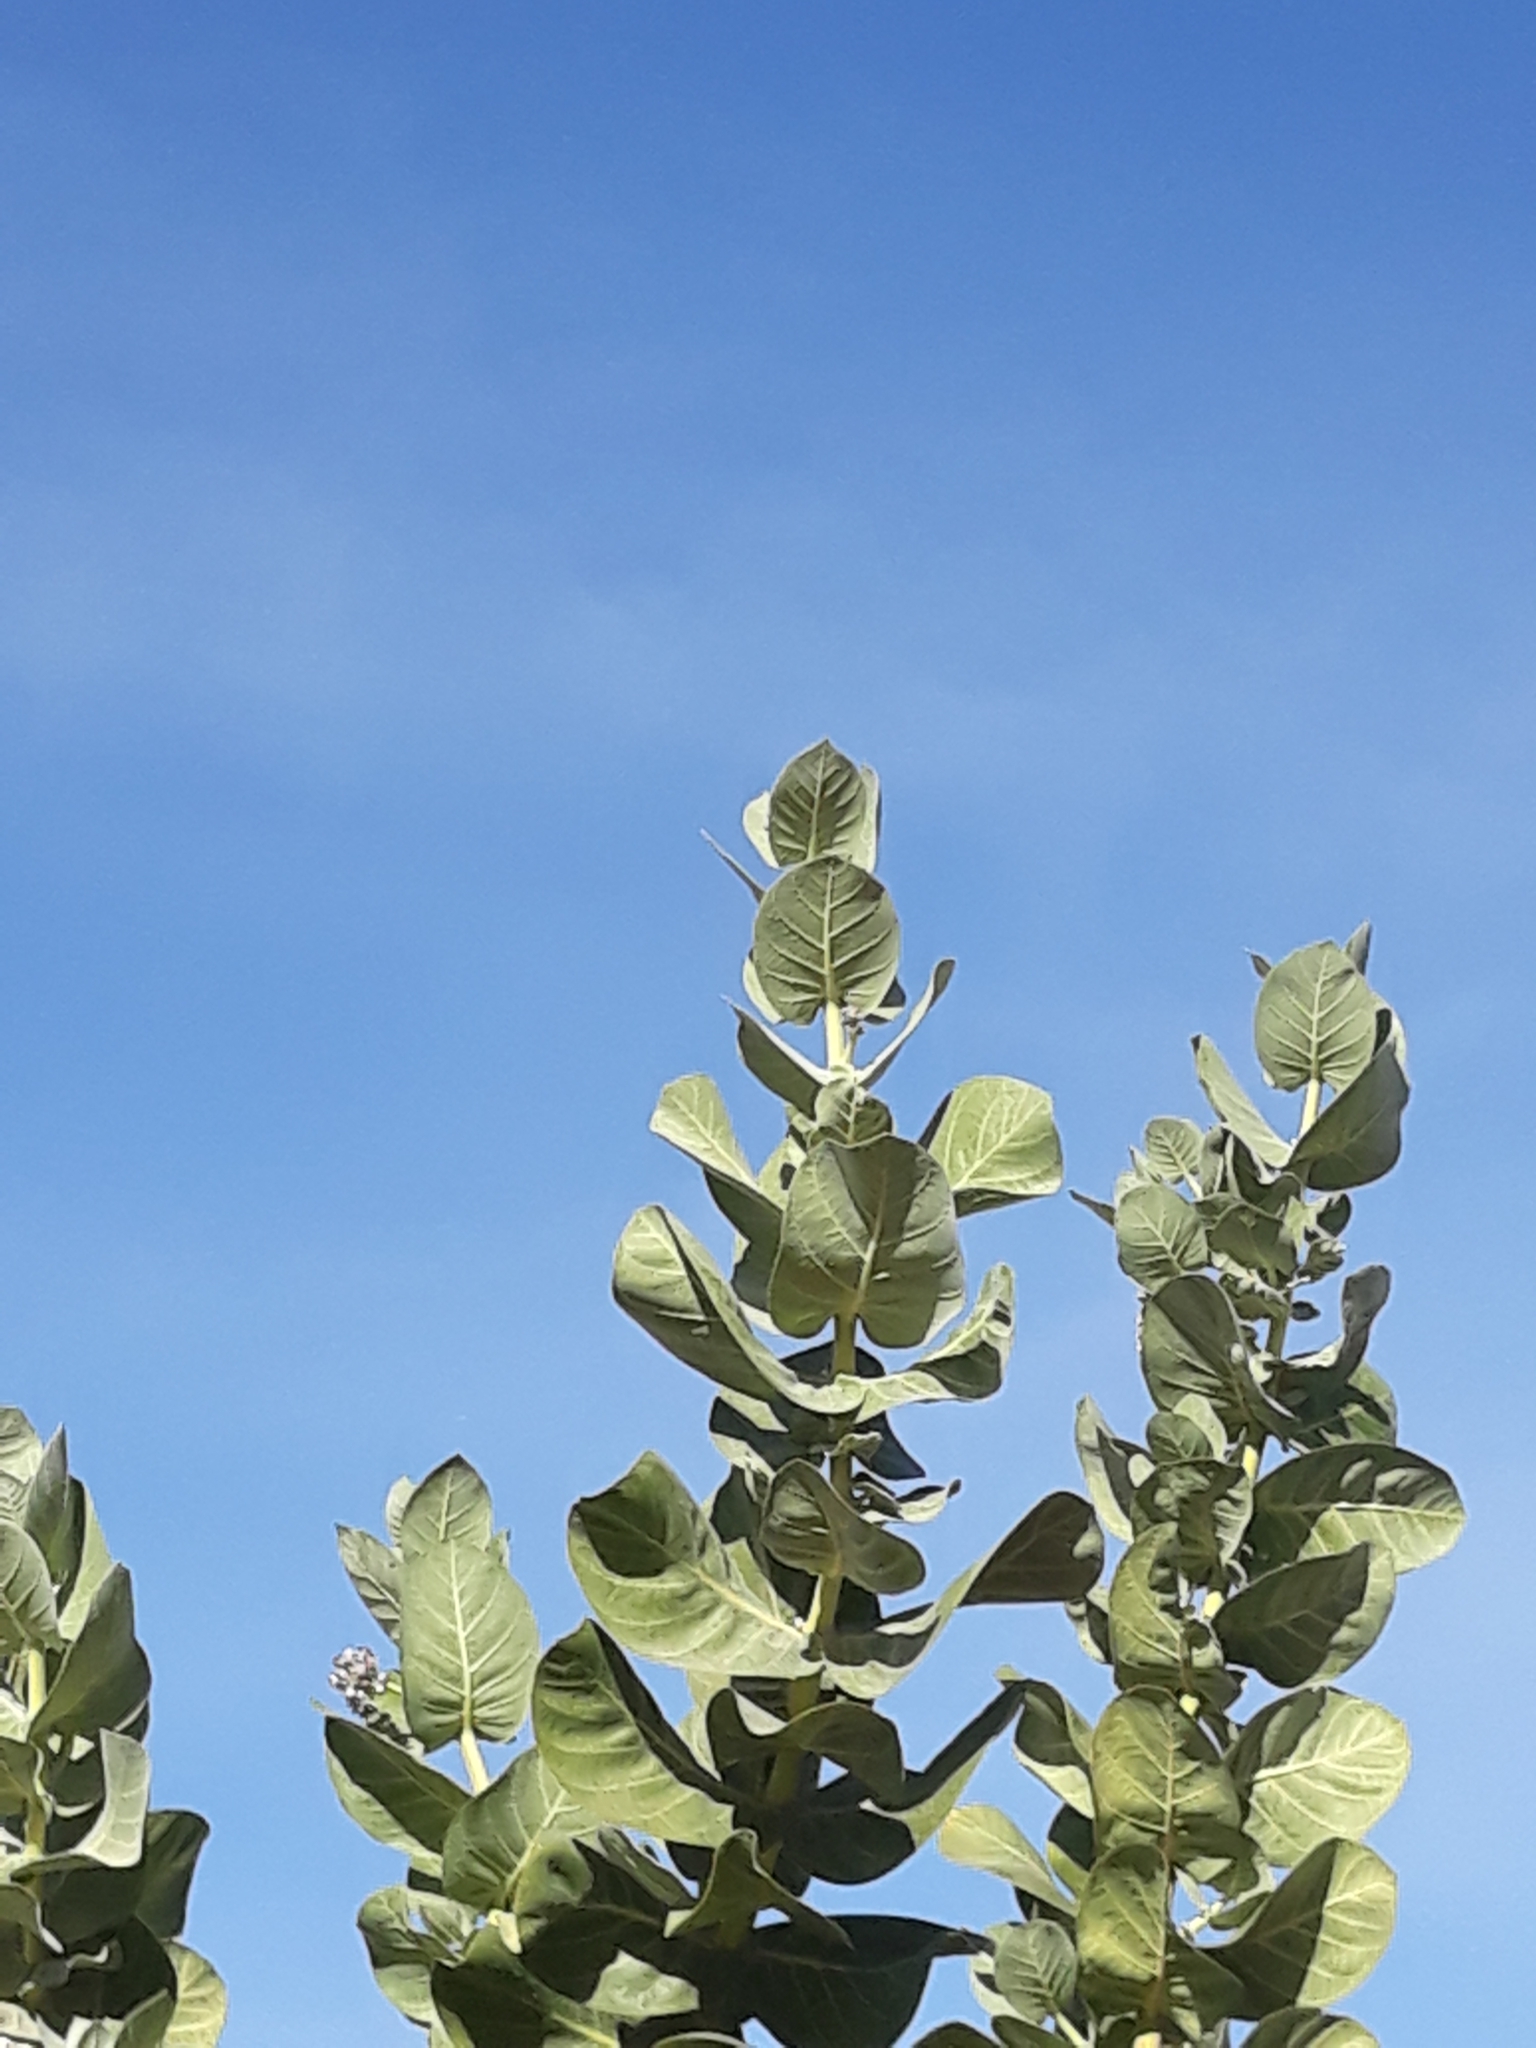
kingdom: Plantae
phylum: Tracheophyta
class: Magnoliopsida
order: Gentianales
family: Apocynaceae
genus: Calotropis
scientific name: Calotropis procera
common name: Roostertree
